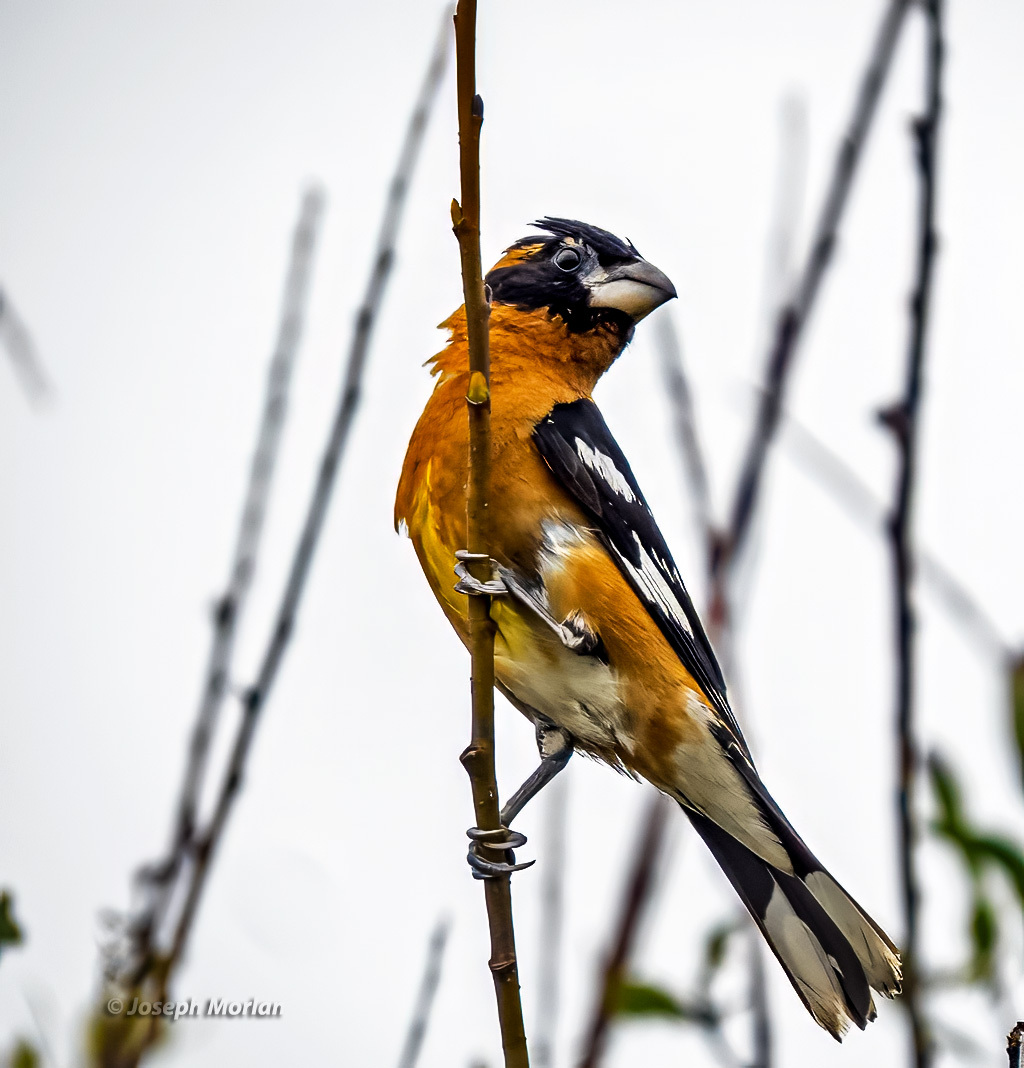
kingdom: Animalia
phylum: Chordata
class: Aves
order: Passeriformes
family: Cardinalidae
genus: Pheucticus
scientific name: Pheucticus melanocephalus
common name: Black-headed grosbeak
